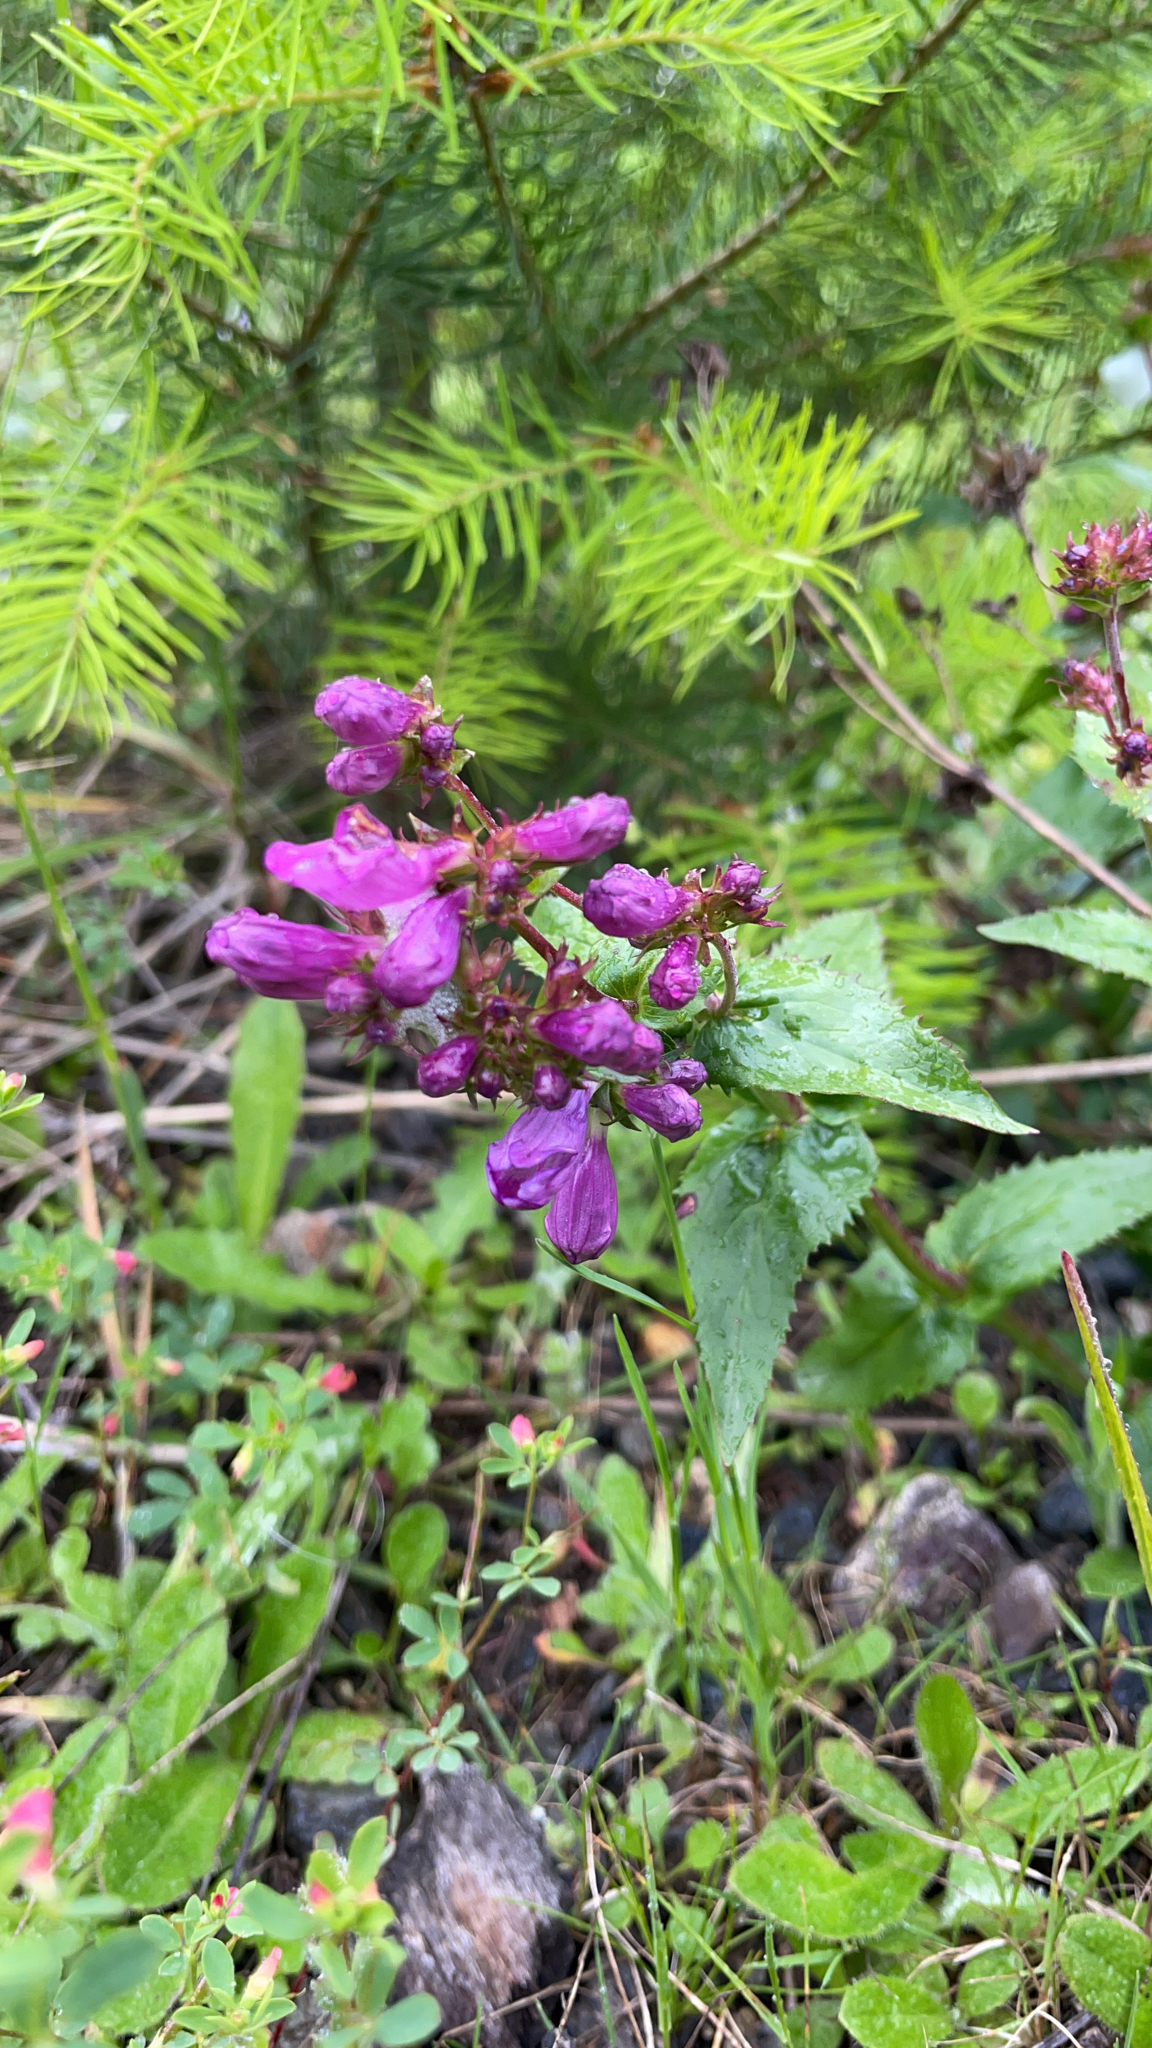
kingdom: Plantae
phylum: Tracheophyta
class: Magnoliopsida
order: Lamiales
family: Plantaginaceae
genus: Penstemon
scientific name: Penstemon serrulatus
